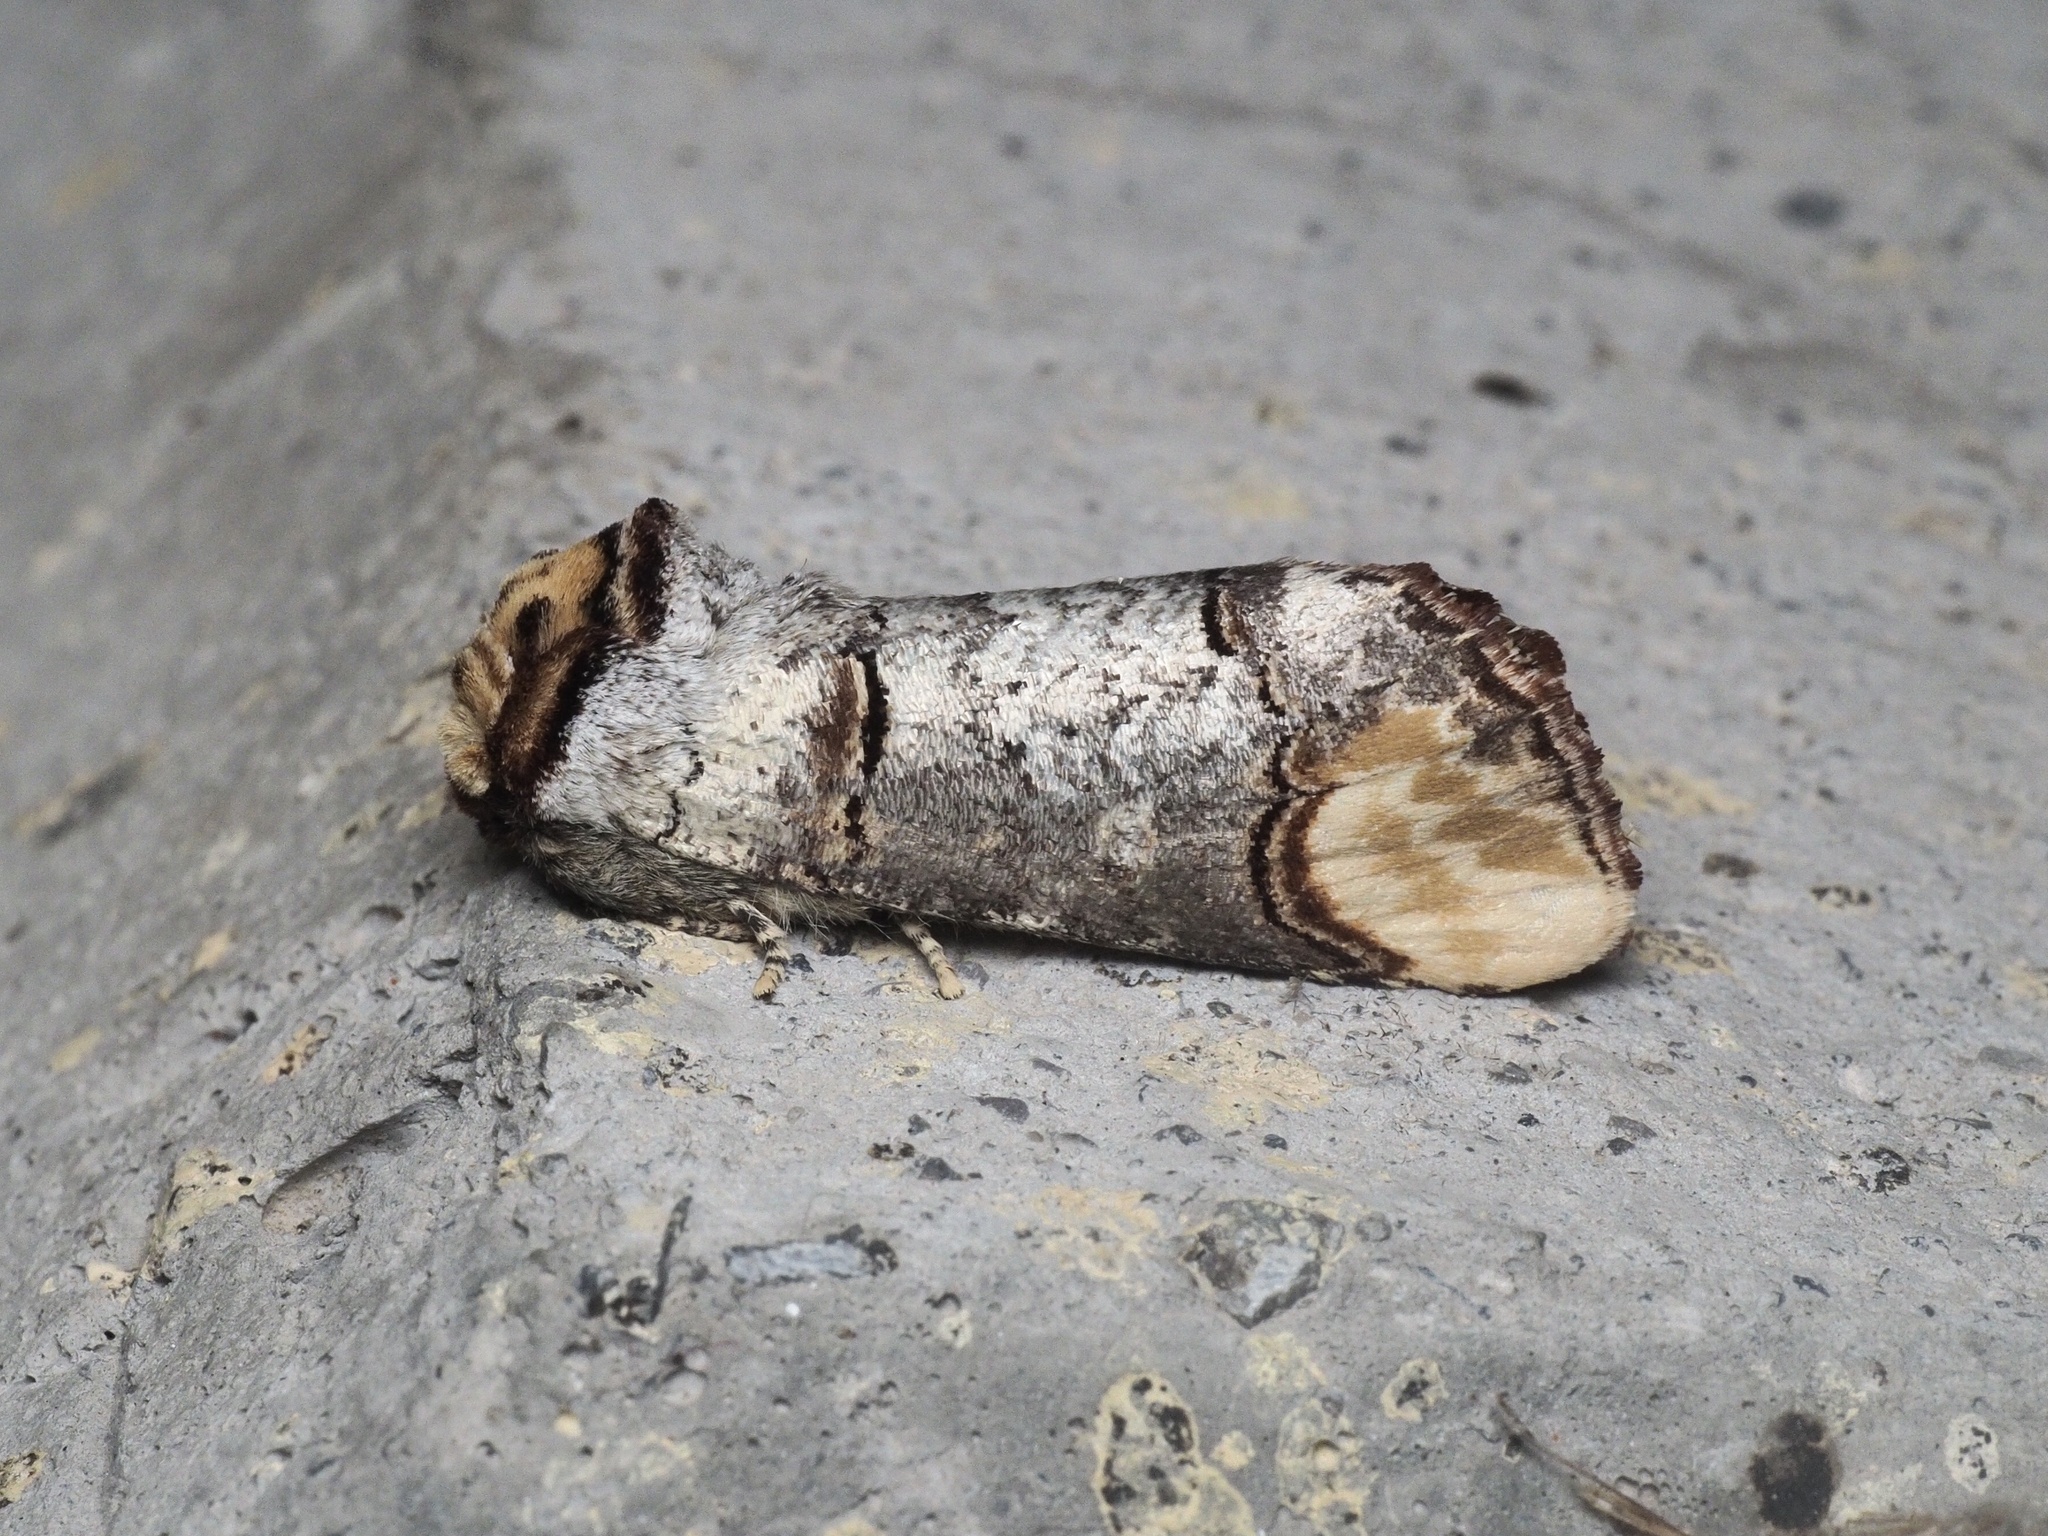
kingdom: Animalia
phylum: Arthropoda
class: Insecta
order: Lepidoptera
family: Notodontidae
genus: Phalera
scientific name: Phalera bucephala
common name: Buff-tip
